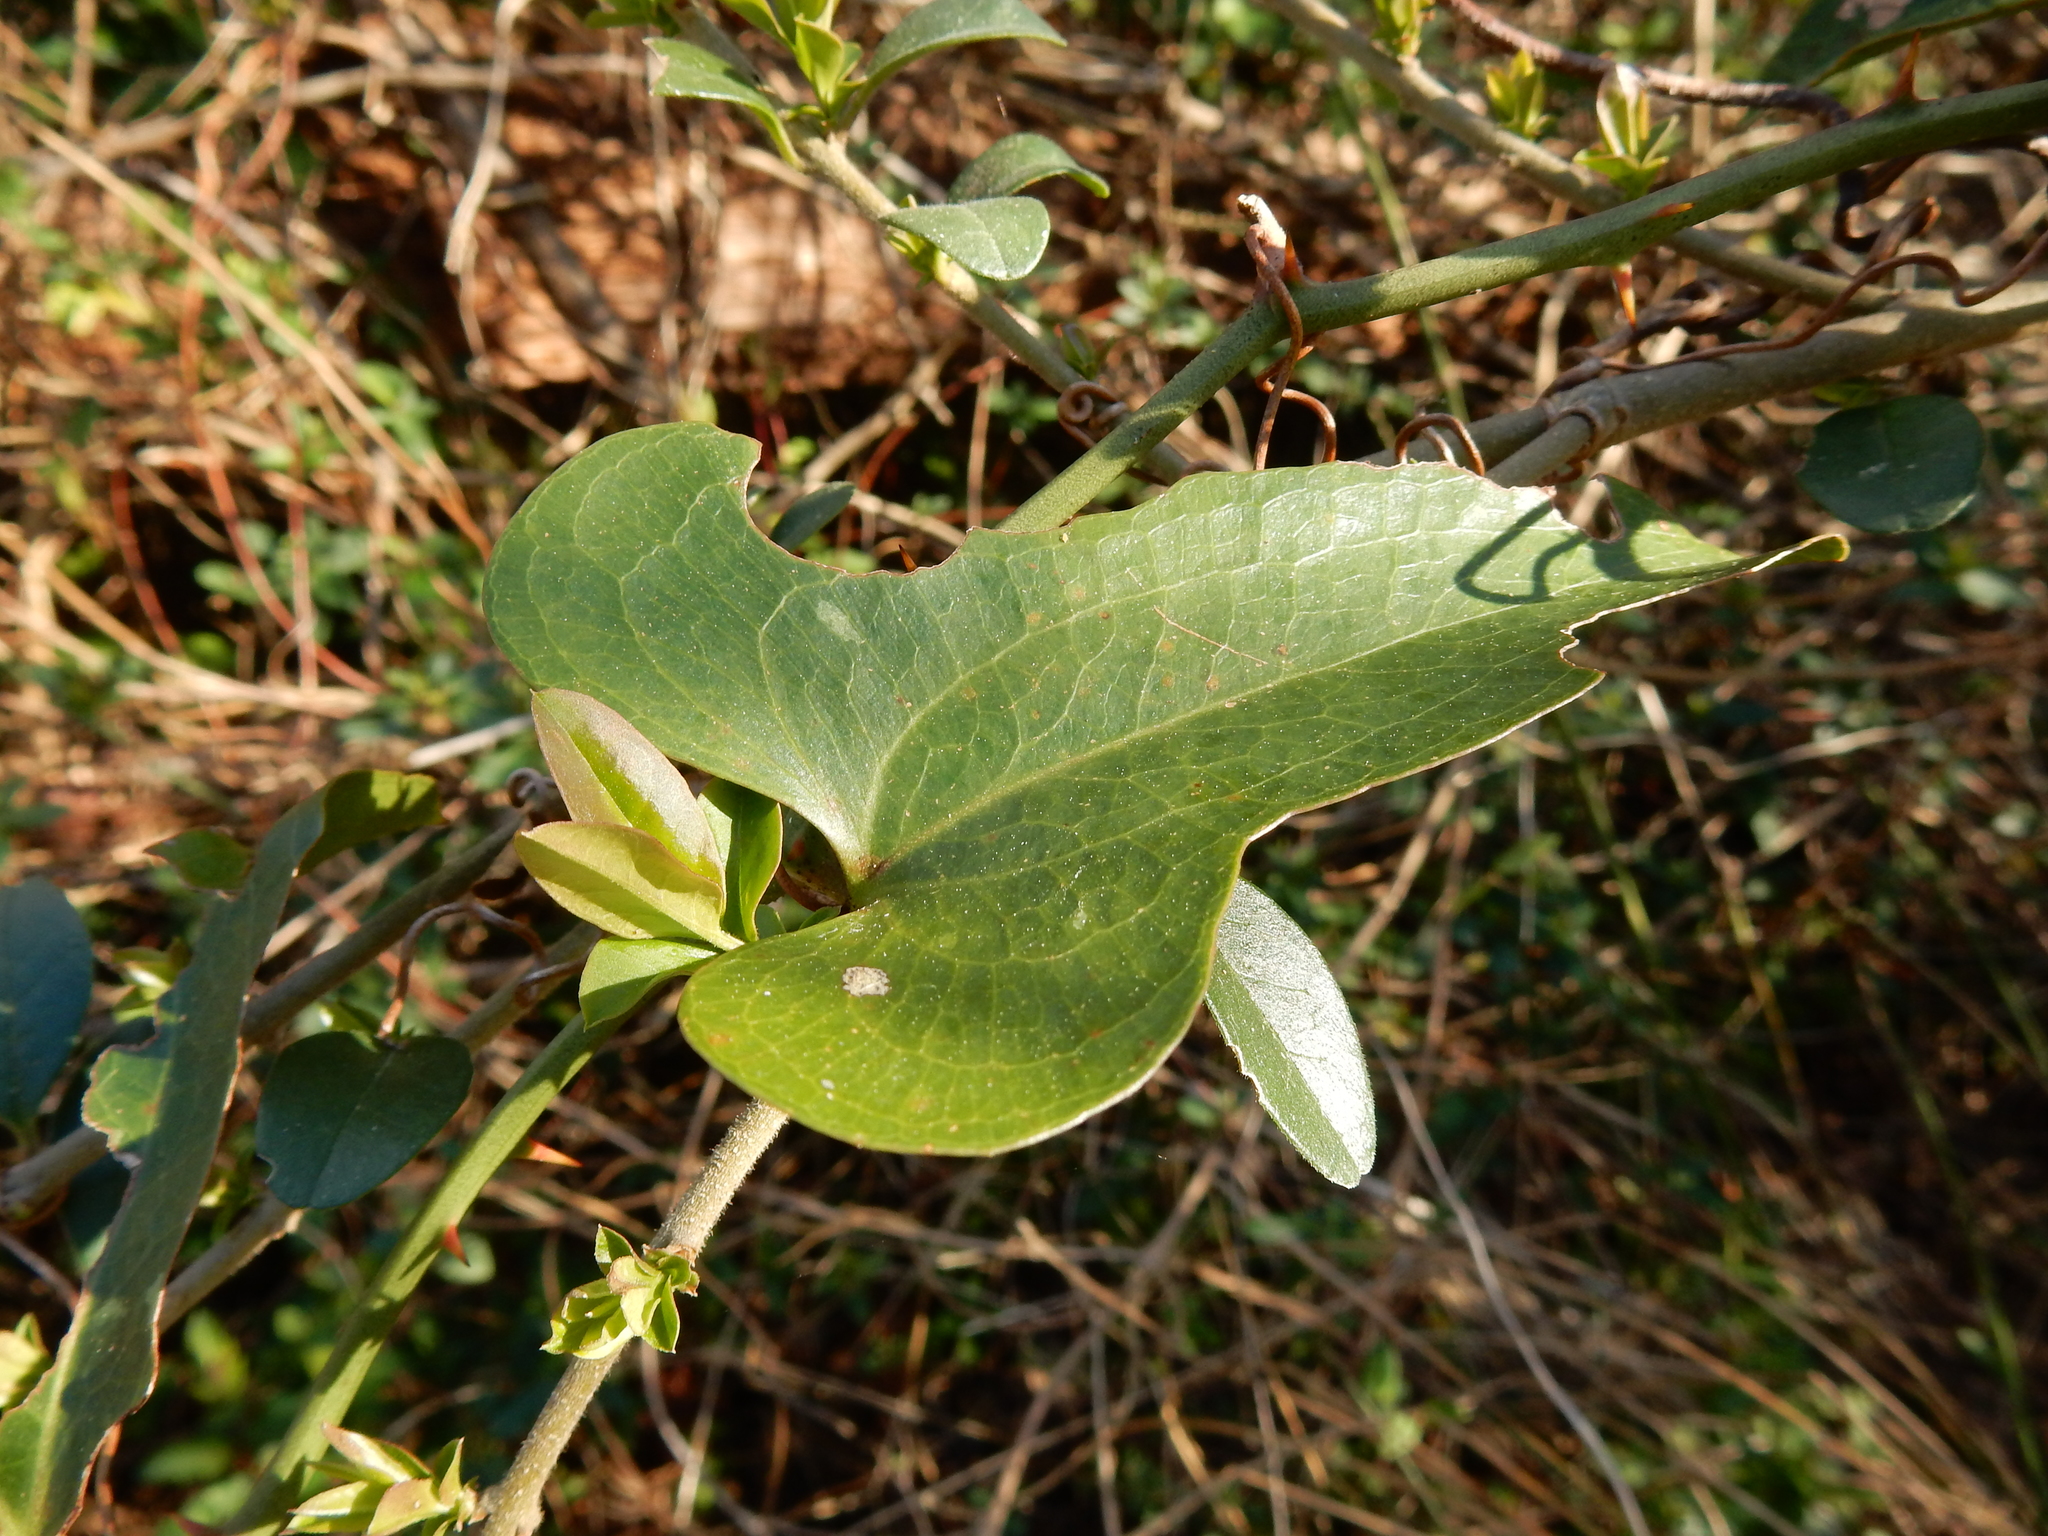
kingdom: Plantae
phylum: Tracheophyta
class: Liliopsida
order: Liliales
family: Smilacaceae
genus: Smilax
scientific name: Smilax bona-nox
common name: Catbrier
